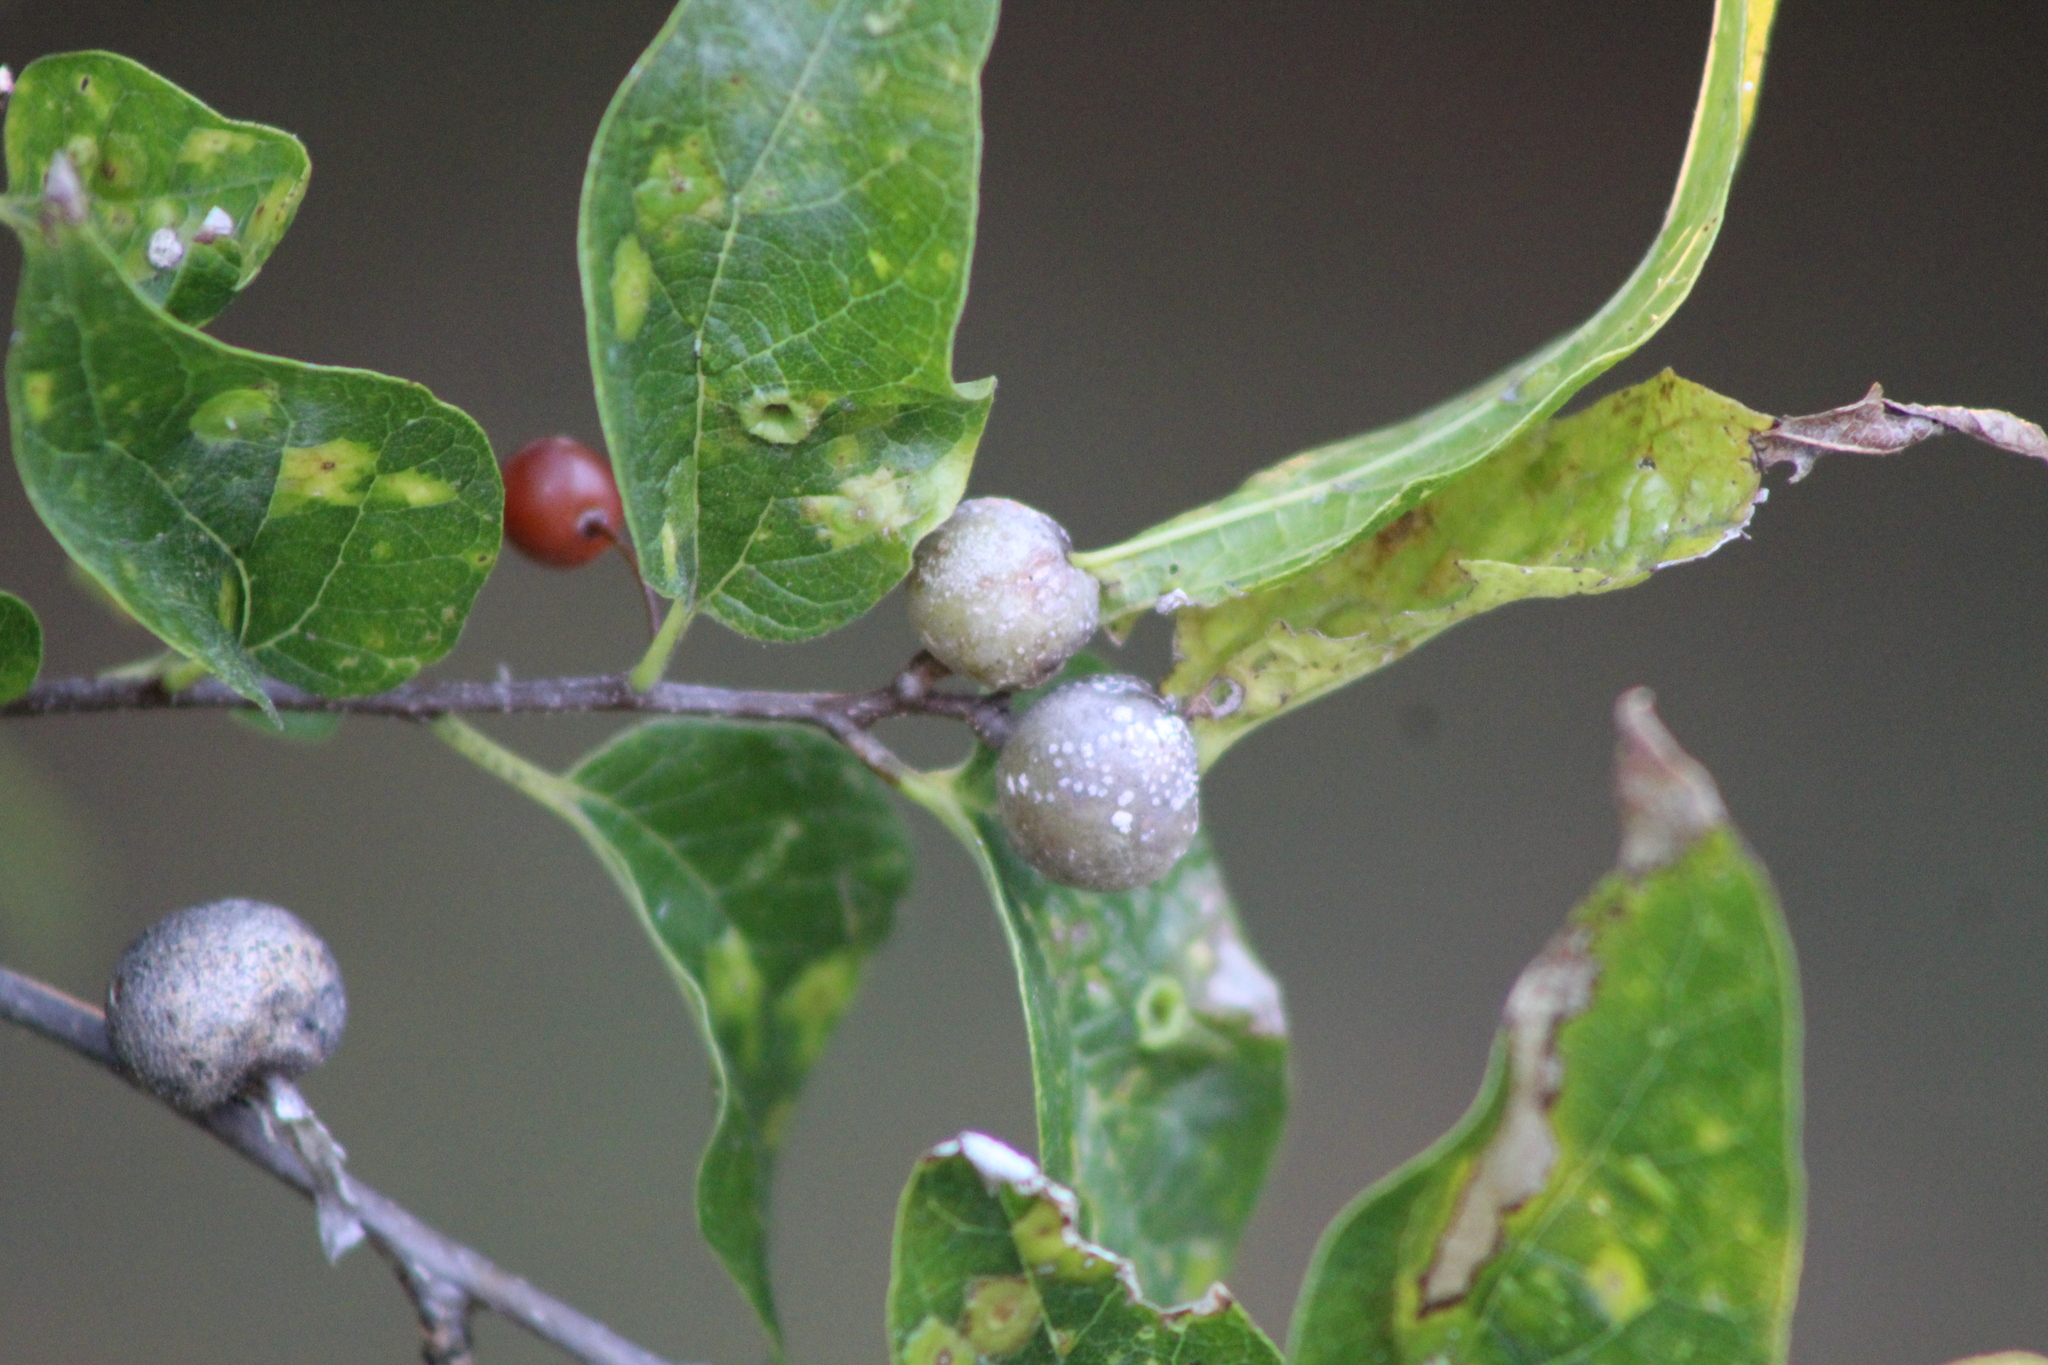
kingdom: Animalia
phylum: Arthropoda
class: Insecta
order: Hemiptera
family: Aphalaridae
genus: Pachypsylla
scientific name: Pachypsylla venusta
